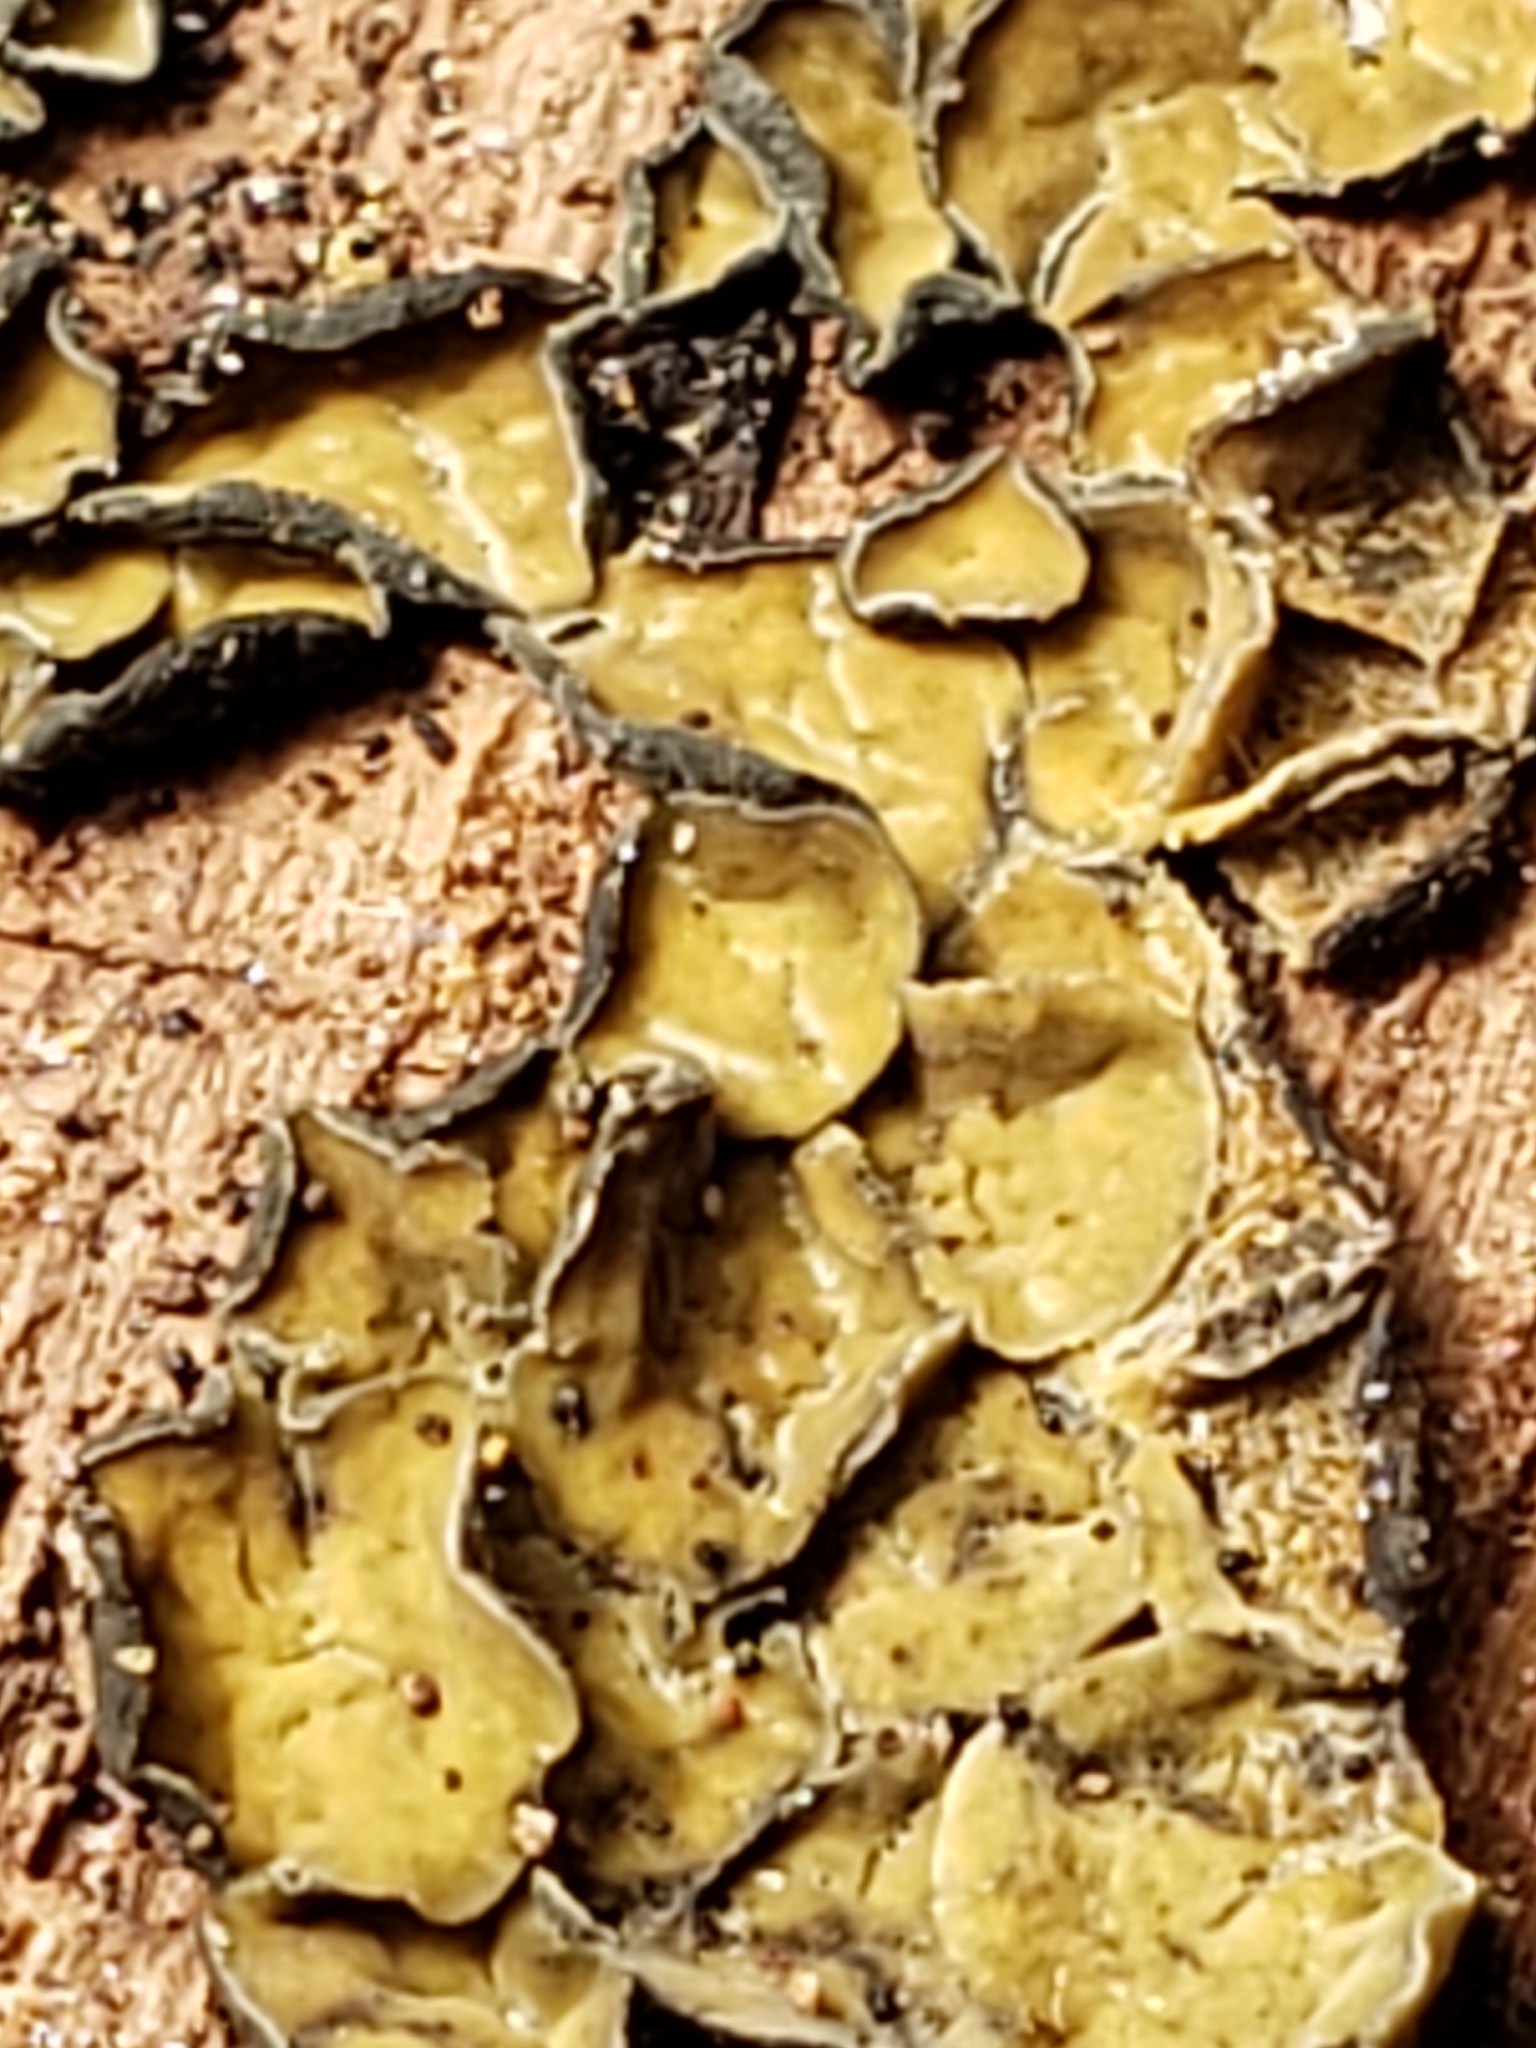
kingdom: Fungi
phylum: Ascomycota
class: Leotiomycetes
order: Helotiales
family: Chlorospleniaceae
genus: Chlorosplenium
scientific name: Chlorosplenium chlora
